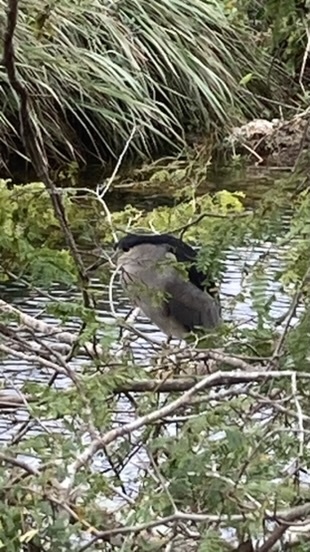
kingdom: Animalia
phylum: Chordata
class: Aves
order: Pelecaniformes
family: Ardeidae
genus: Nycticorax
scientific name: Nycticorax nycticorax
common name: Black-crowned night heron
